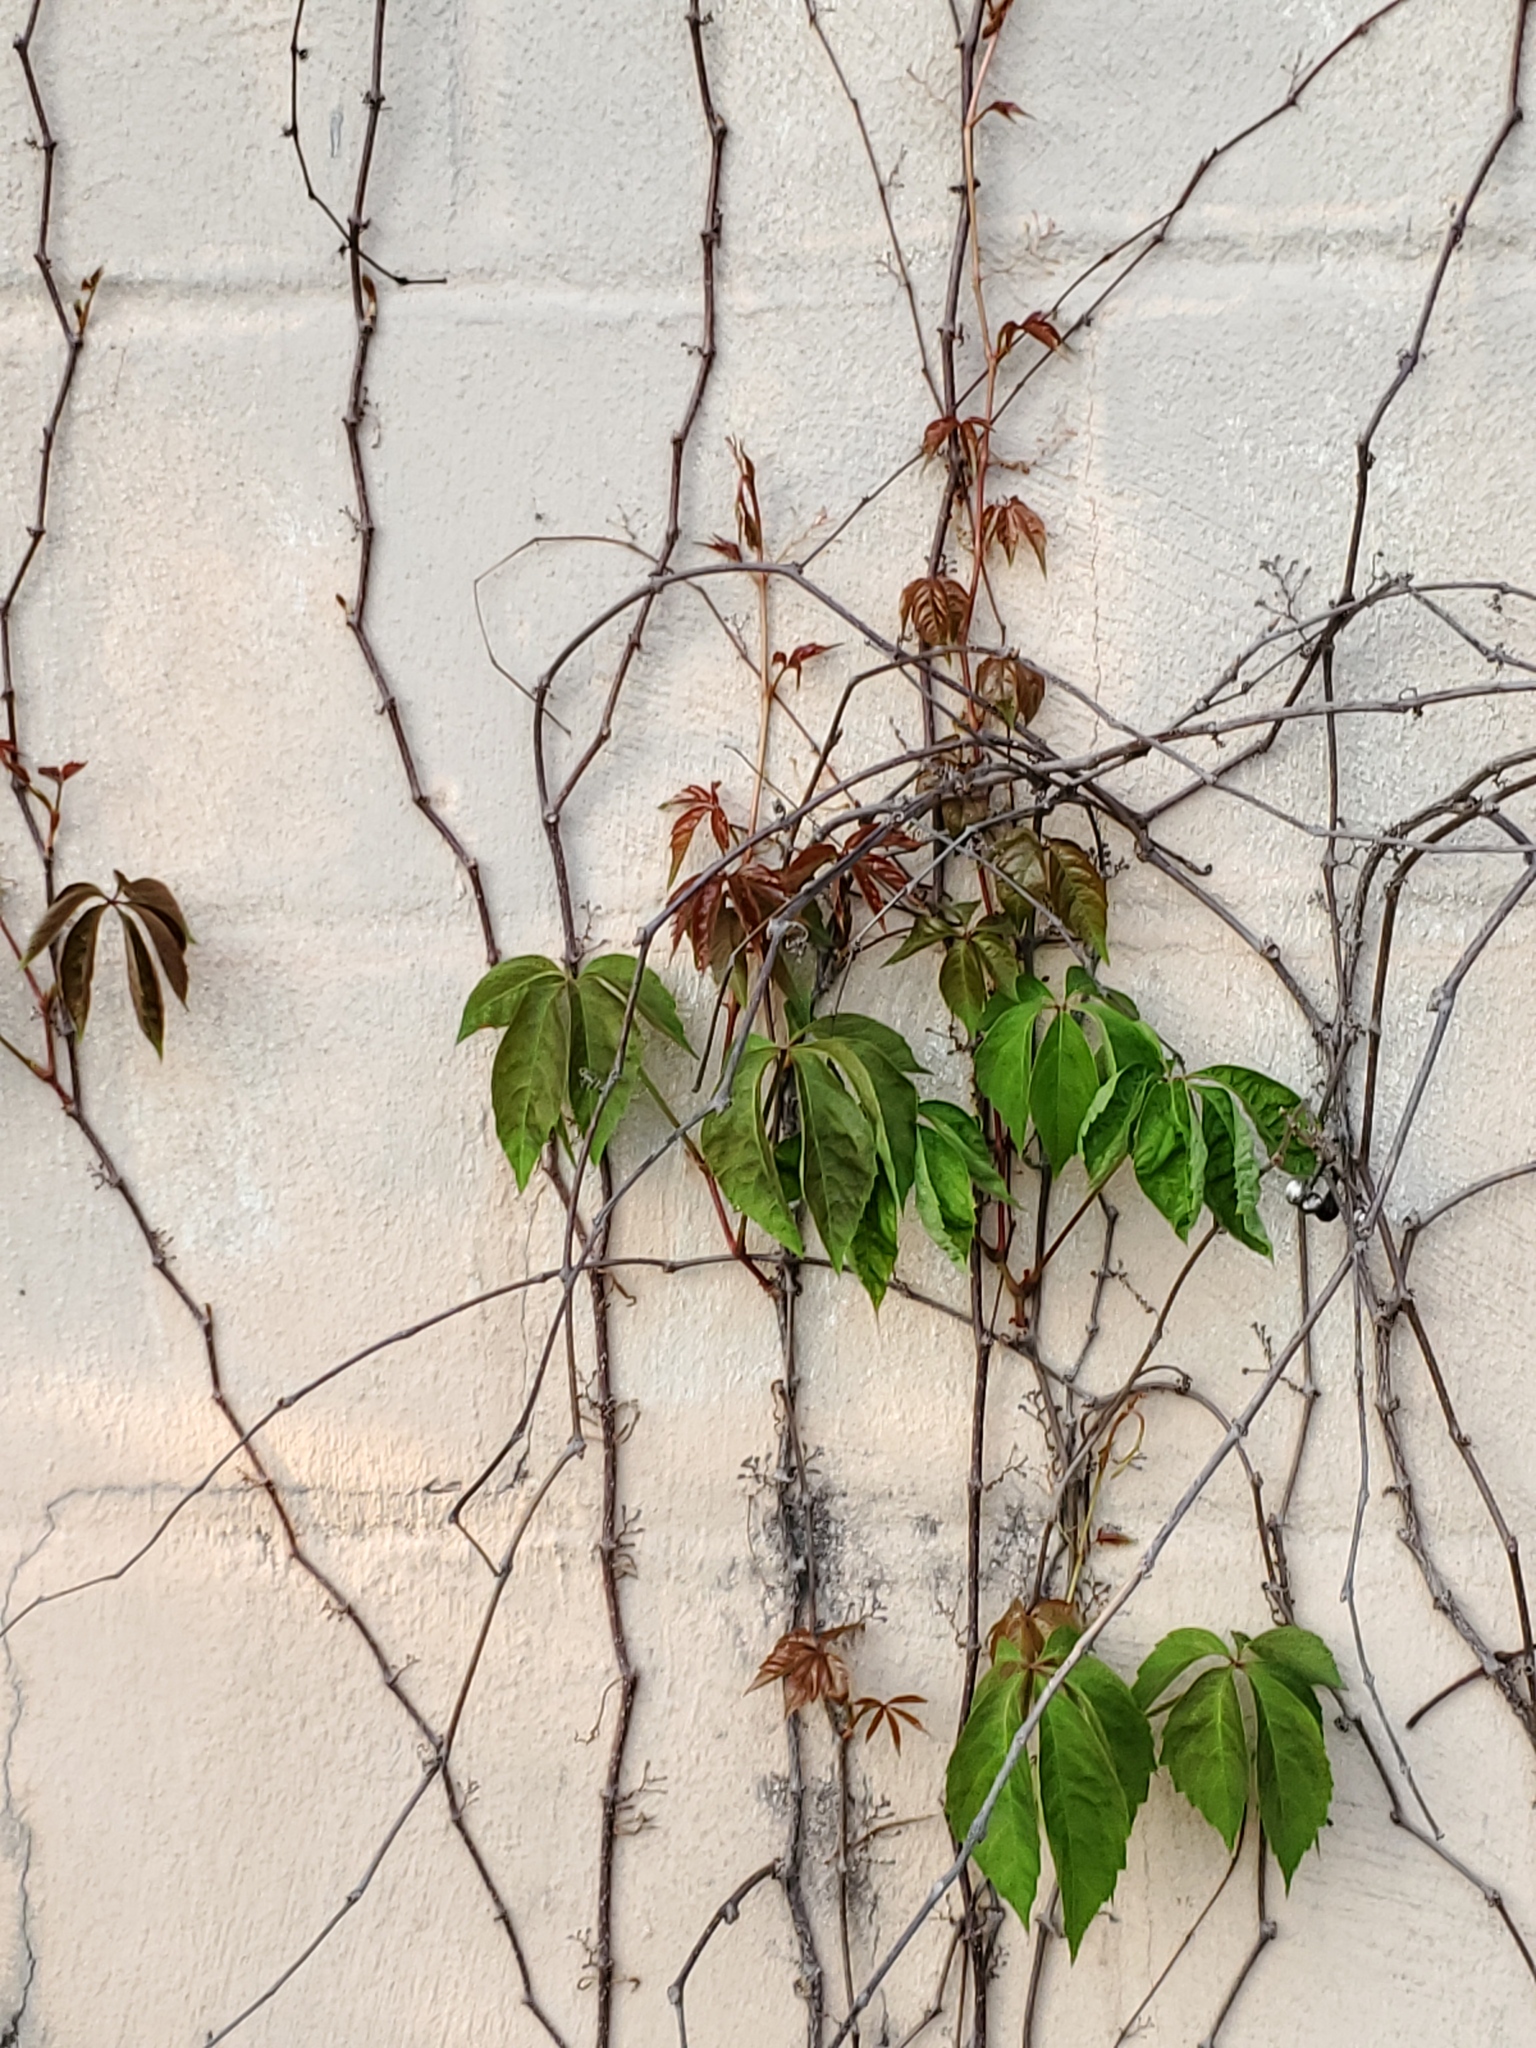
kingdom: Plantae
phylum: Tracheophyta
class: Magnoliopsida
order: Vitales
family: Vitaceae
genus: Parthenocissus
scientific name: Parthenocissus quinquefolia
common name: Virginia-creeper
